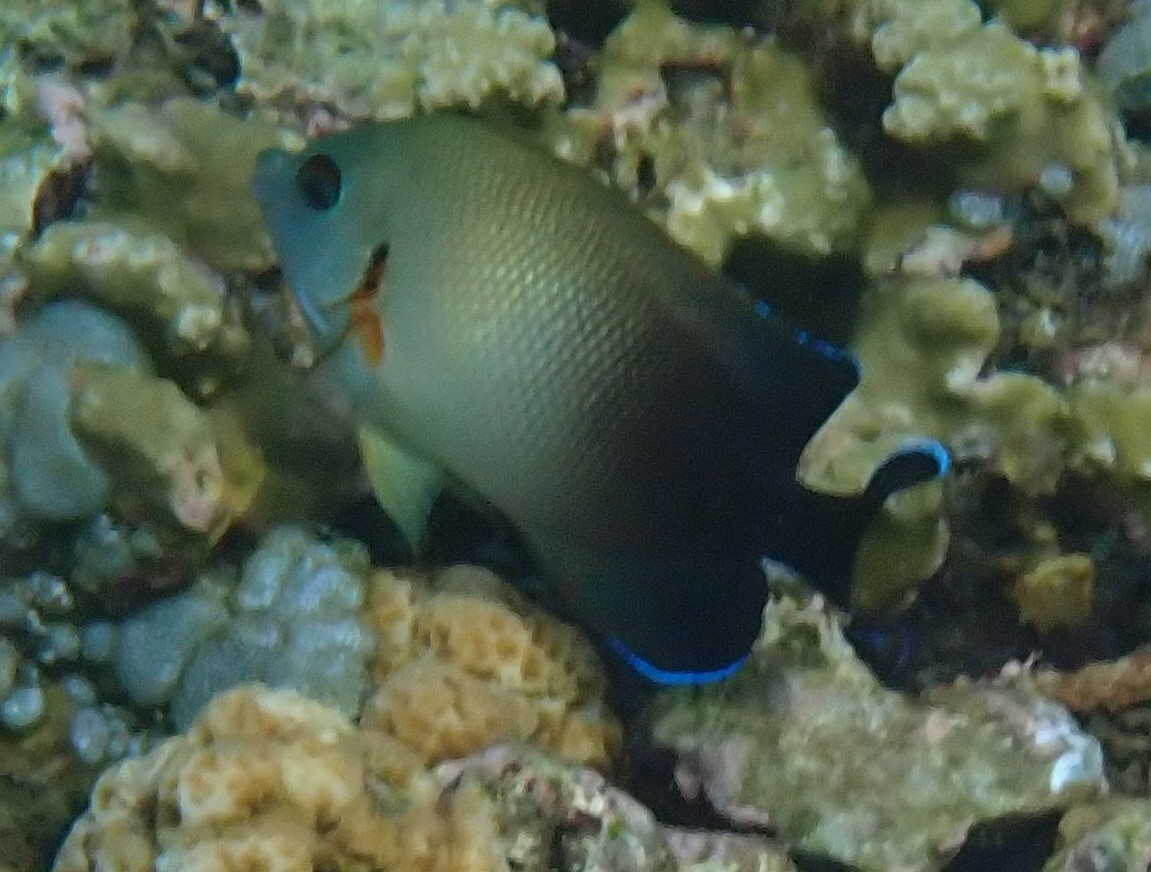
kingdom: Animalia
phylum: Chordata
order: Perciformes
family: Pomacanthidae
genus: Centropyge
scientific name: Centropyge vrolikii
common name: Pearlscale angelfish
